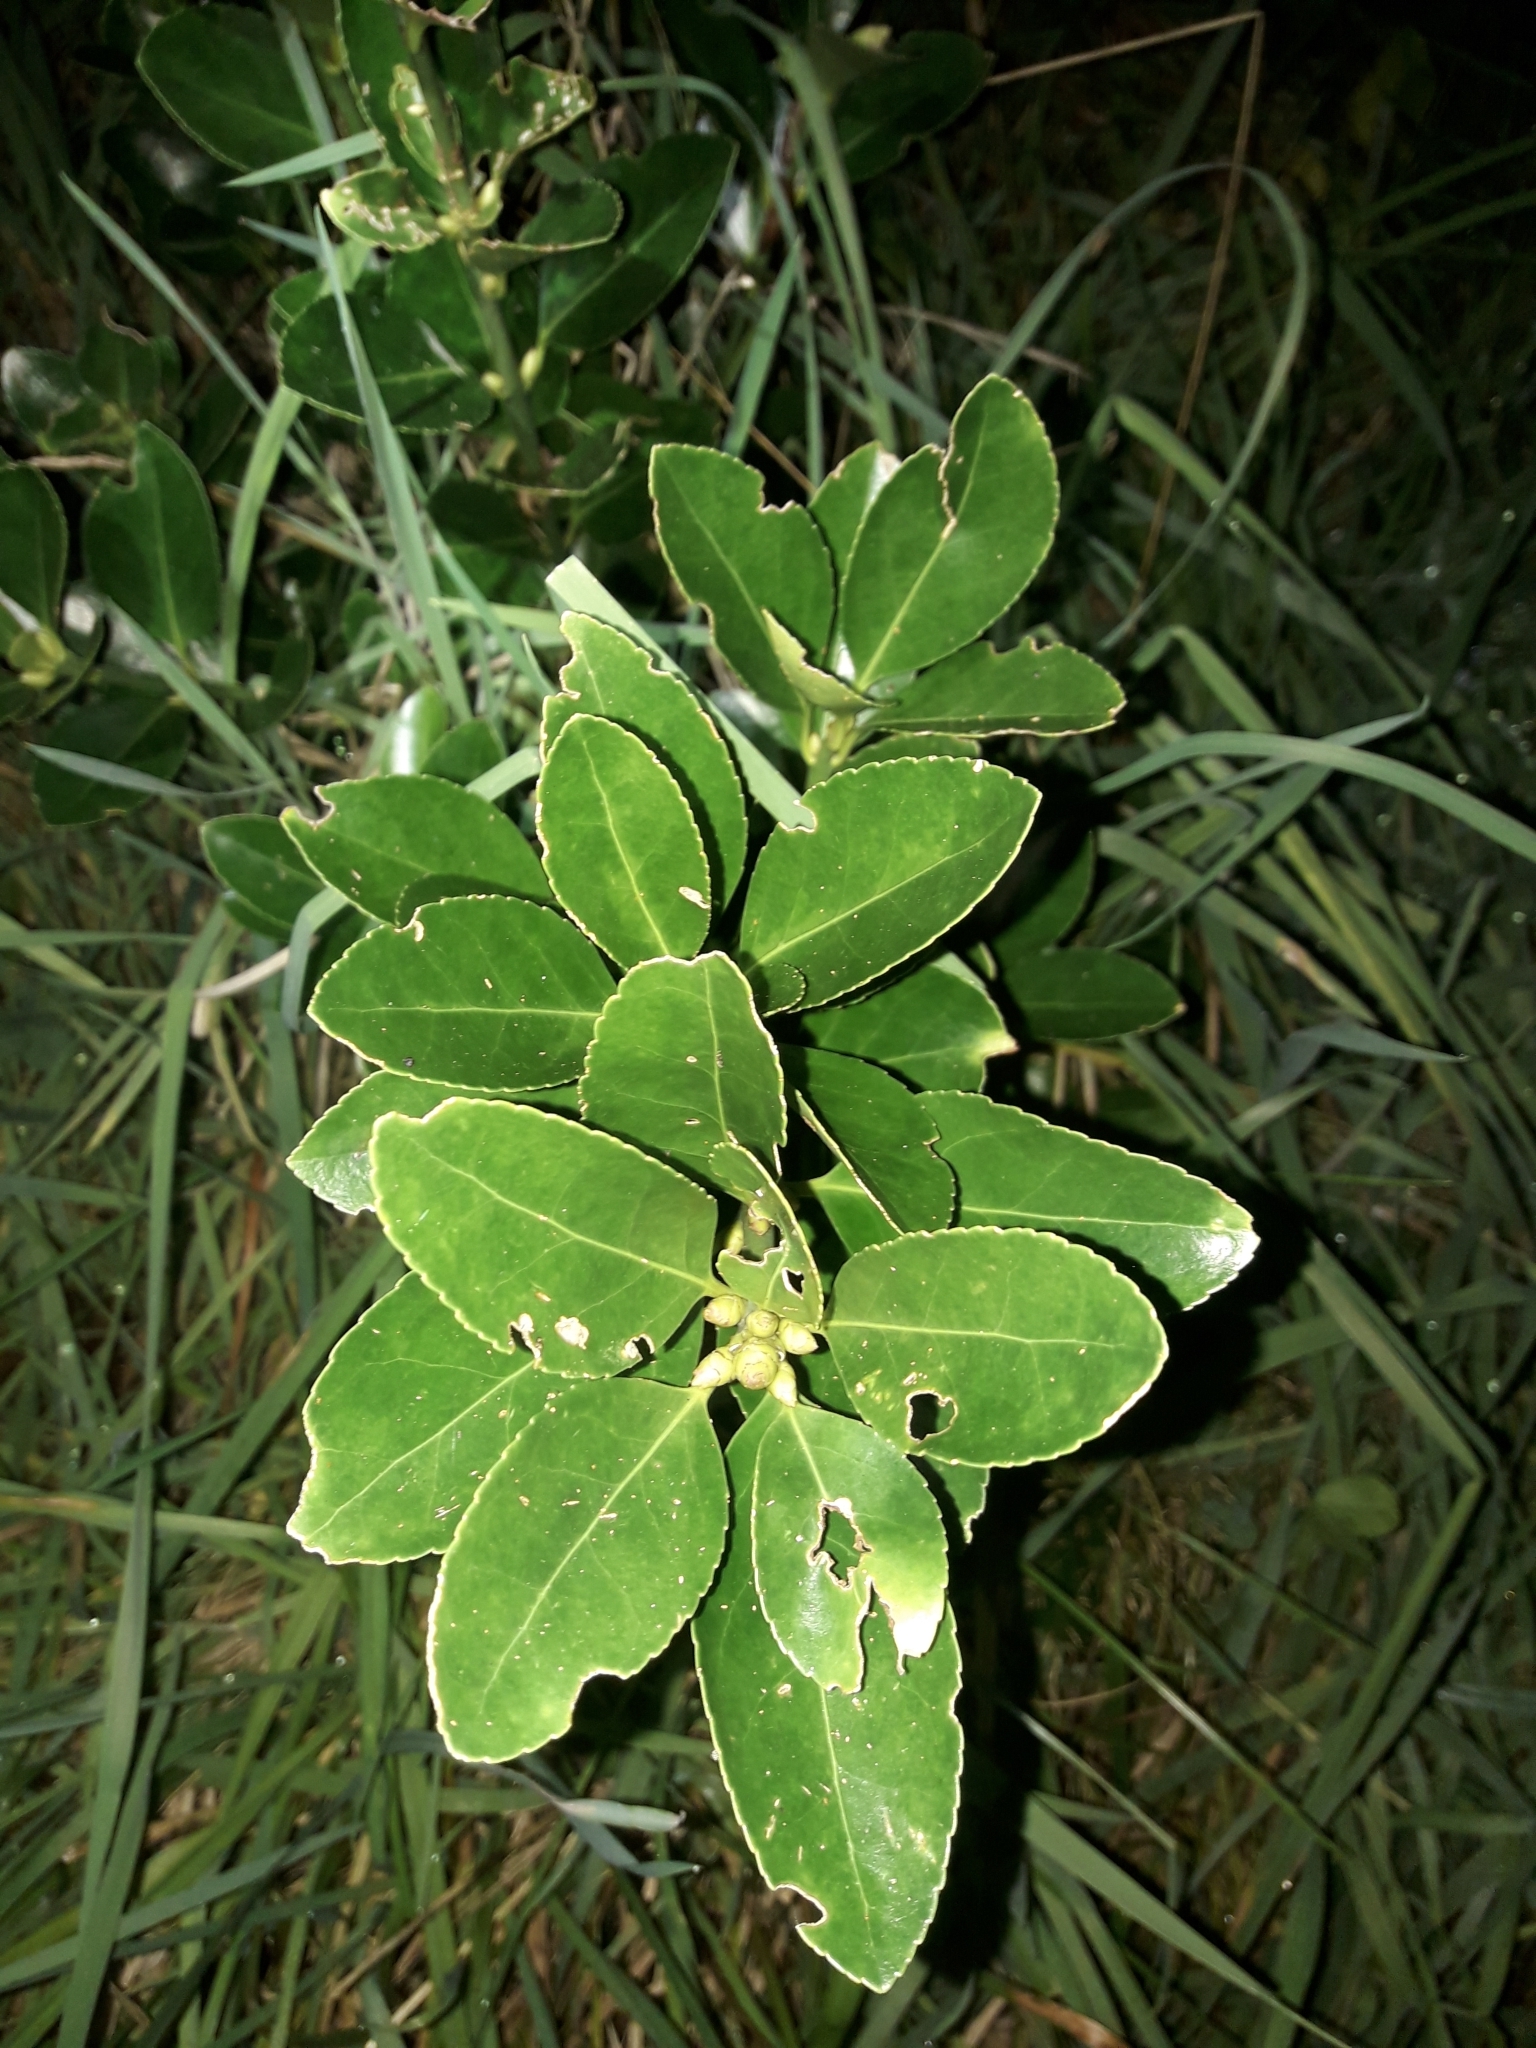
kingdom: Plantae
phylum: Tracheophyta
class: Magnoliopsida
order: Celastrales
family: Celastraceae
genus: Euonymus
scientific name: Euonymus japonicus
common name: Japanese spindletree
